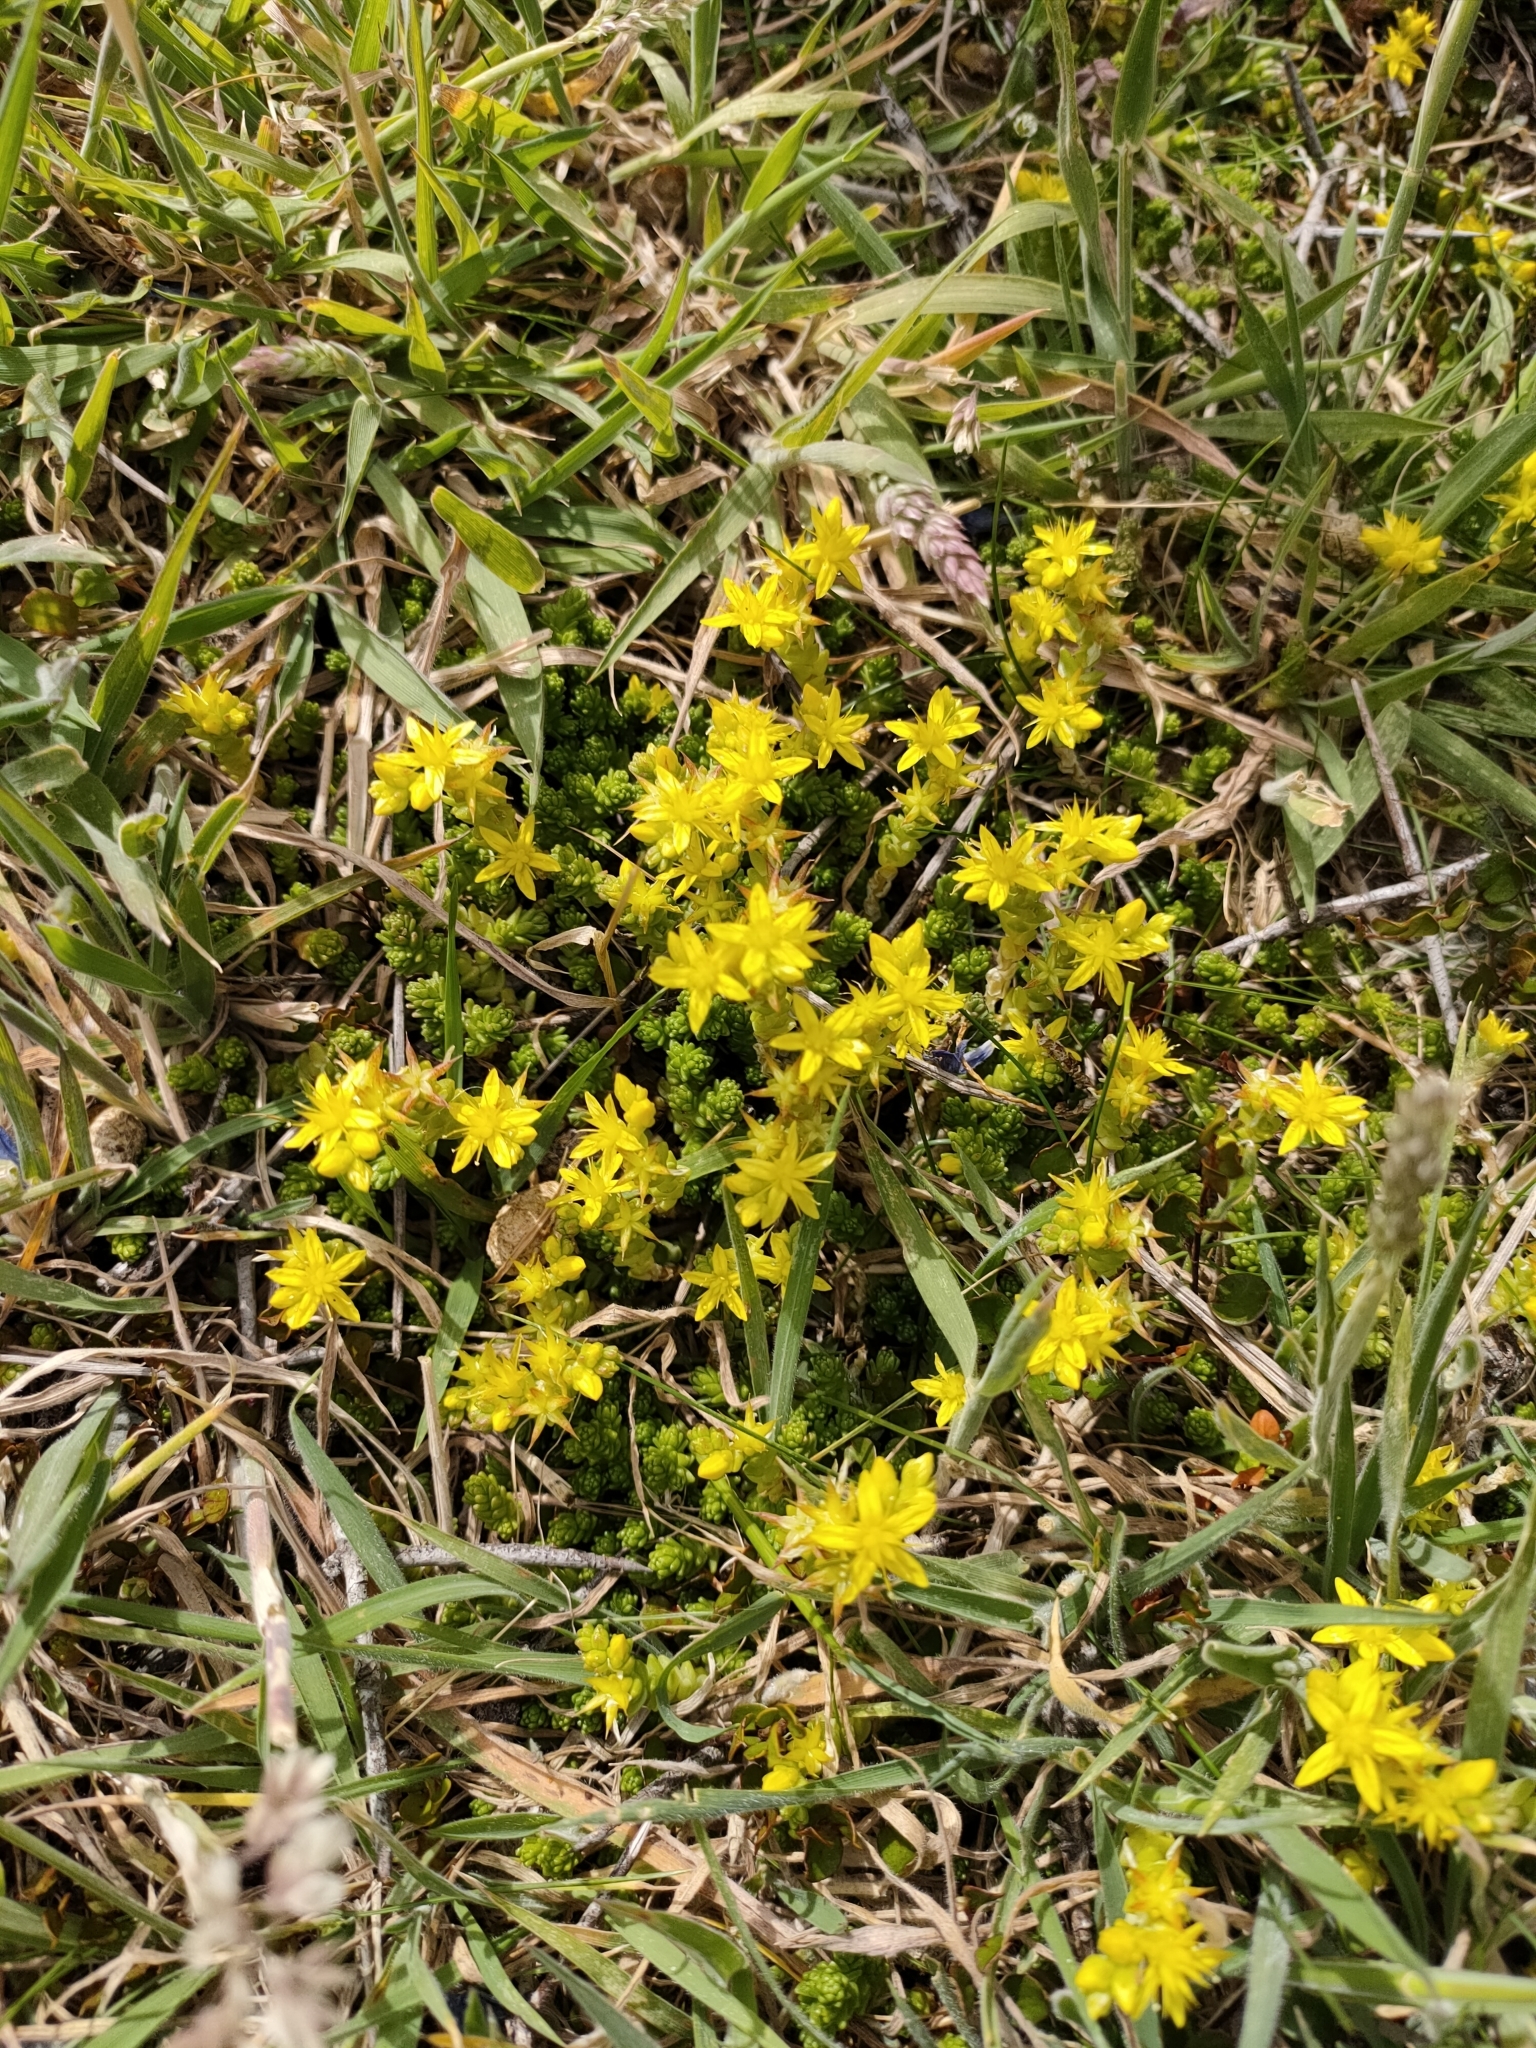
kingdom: Plantae
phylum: Tracheophyta
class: Magnoliopsida
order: Saxifragales
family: Crassulaceae
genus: Sedum
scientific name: Sedum acre
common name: Biting stonecrop
